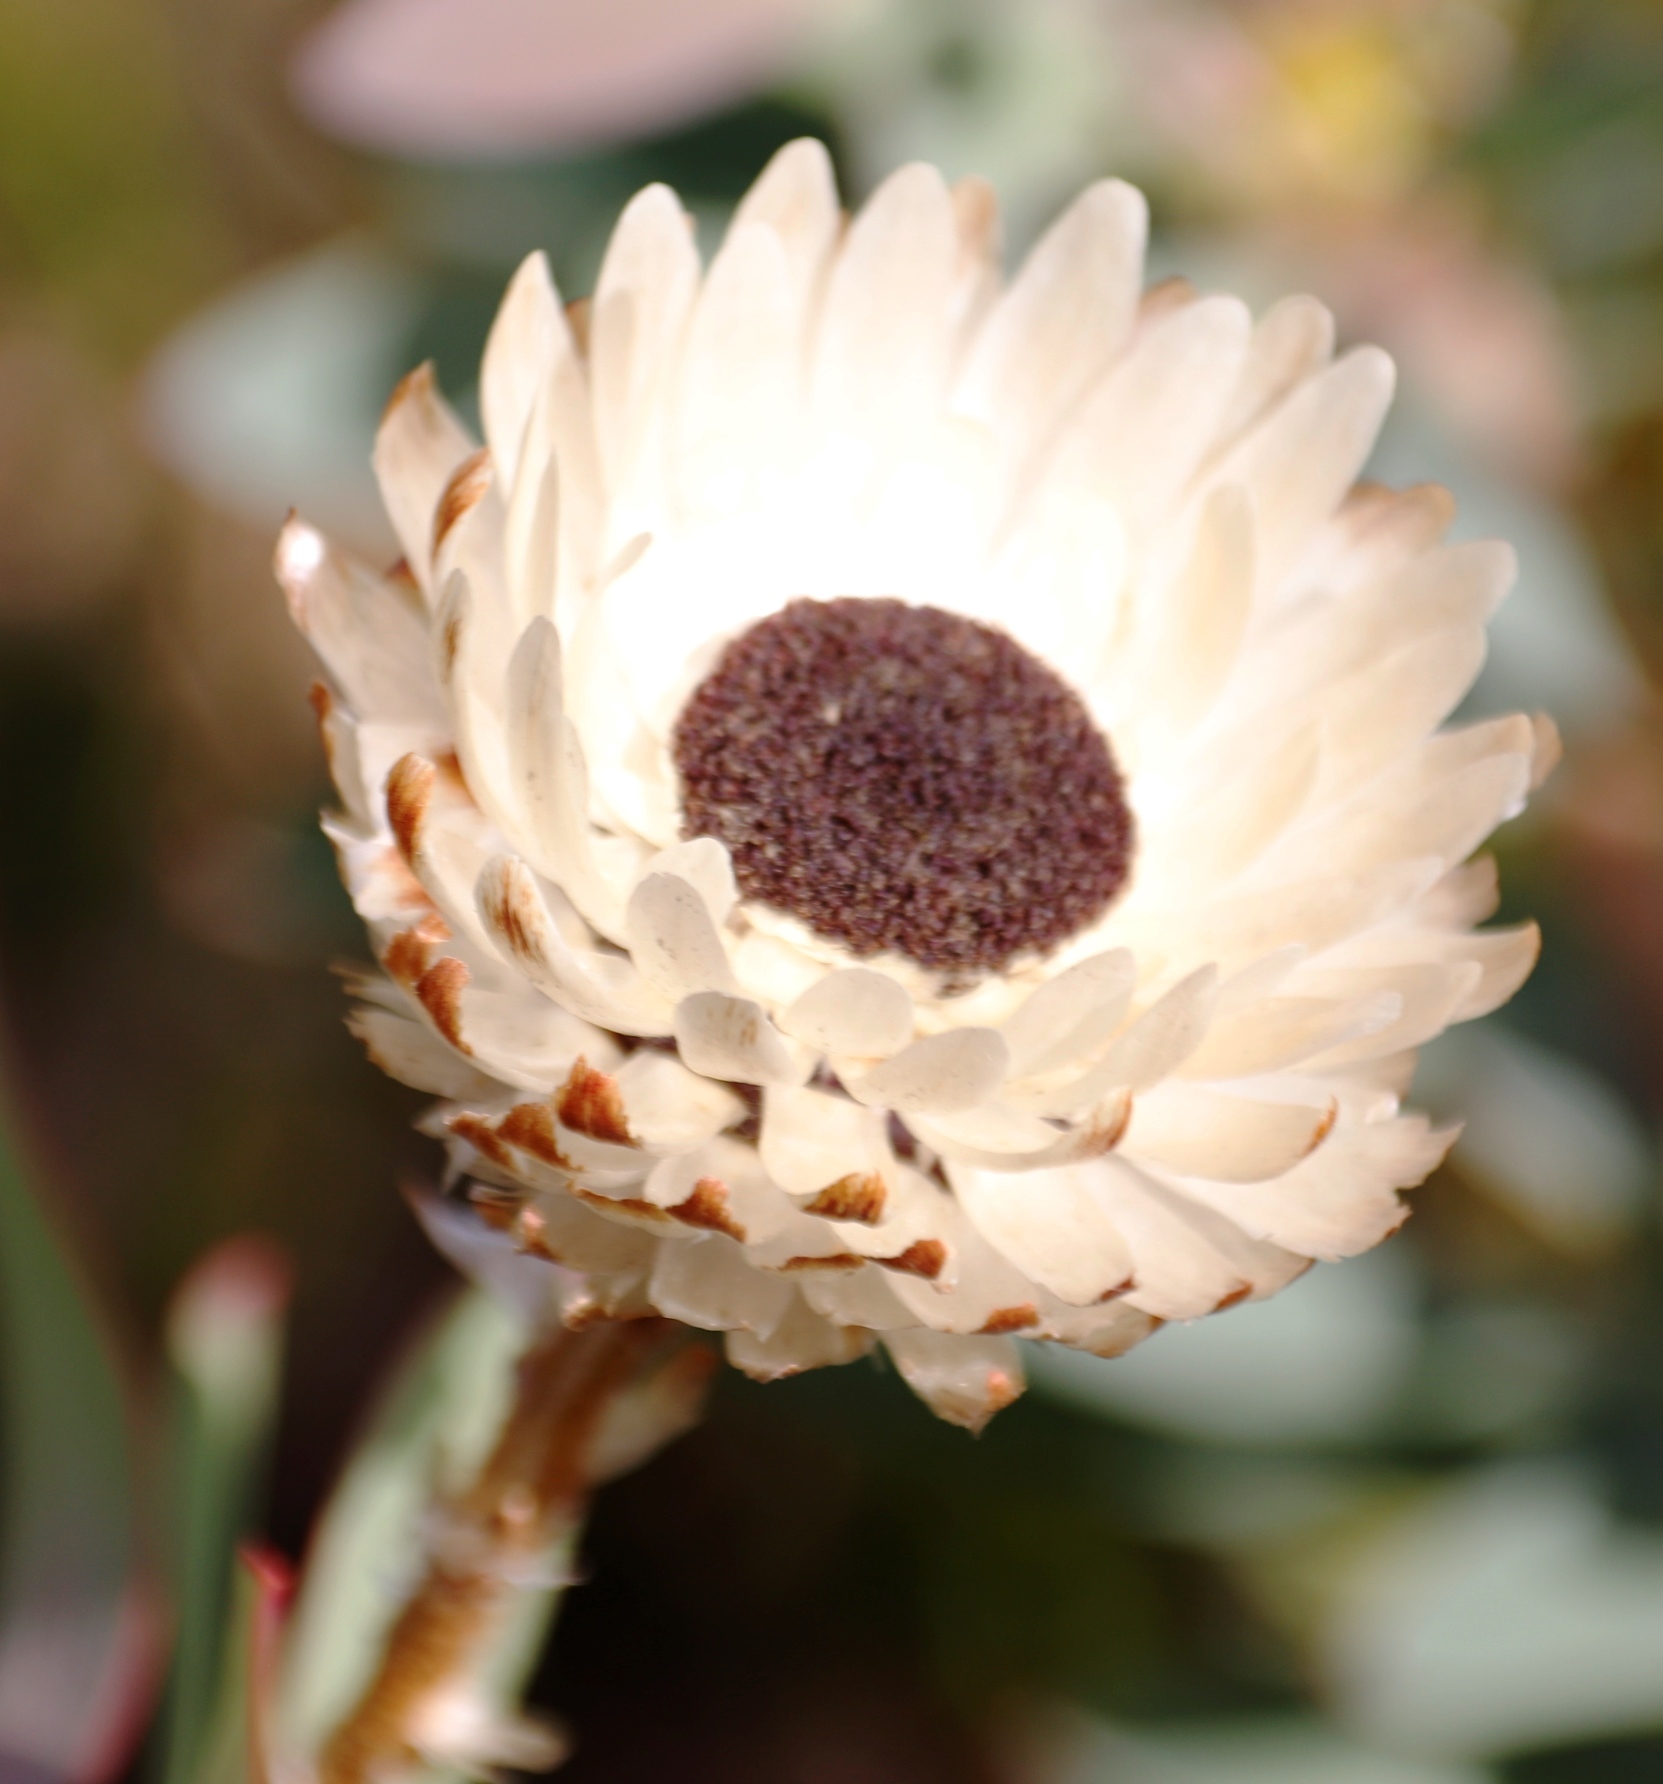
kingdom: Plantae
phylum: Tracheophyta
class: Magnoliopsida
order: Asterales
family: Asteraceae
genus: Syncarpha
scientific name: Syncarpha loganiana
